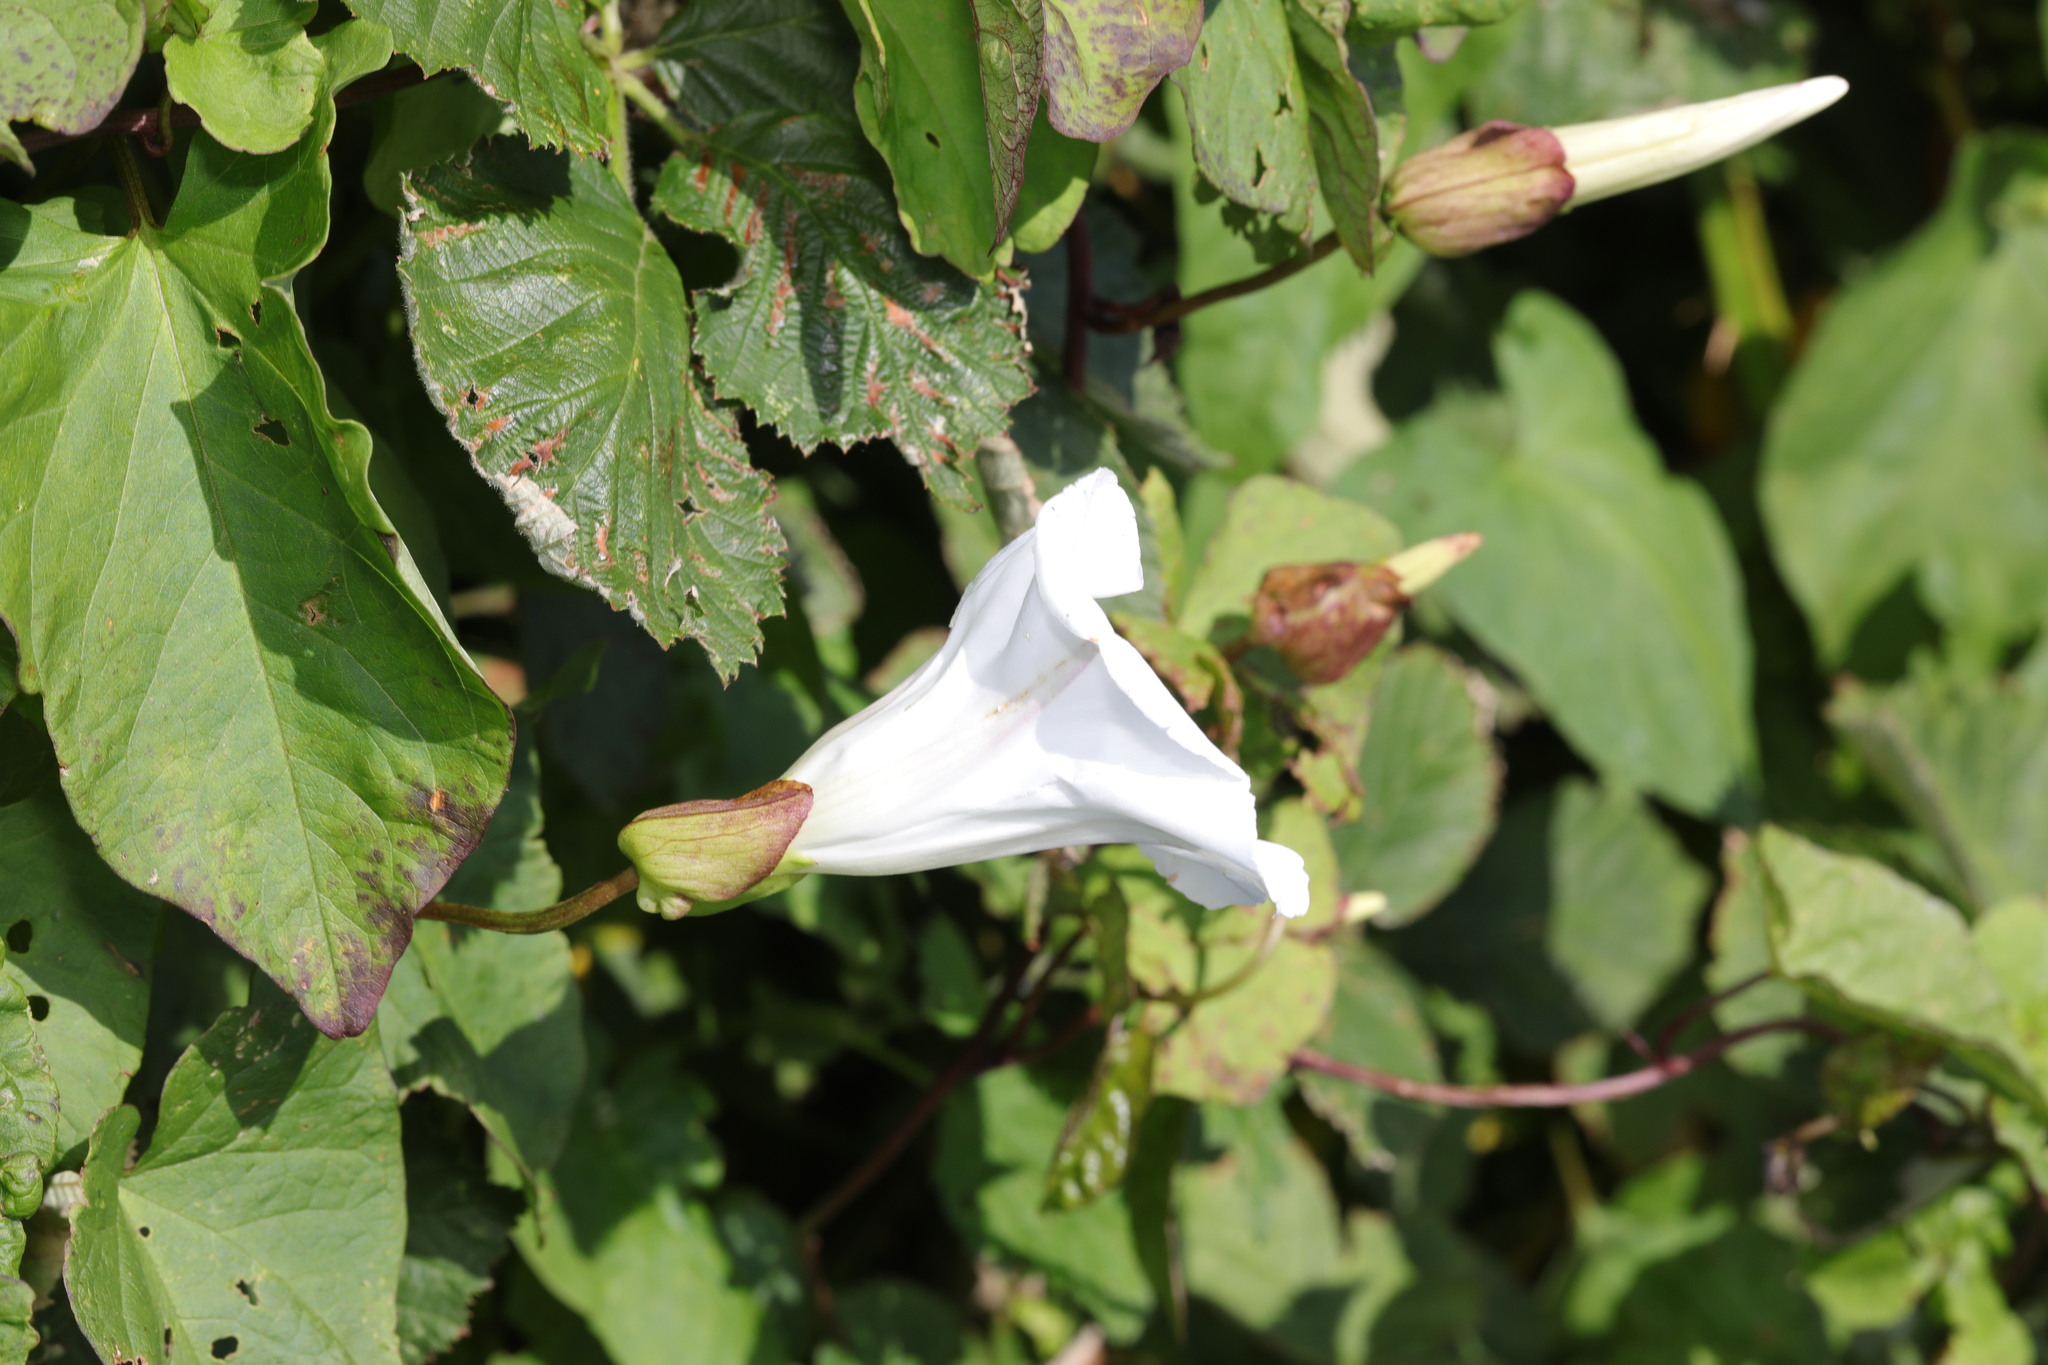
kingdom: Plantae
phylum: Tracheophyta
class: Magnoliopsida
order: Solanales
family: Convolvulaceae
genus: Calystegia
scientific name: Calystegia silvatica
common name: Large bindweed
